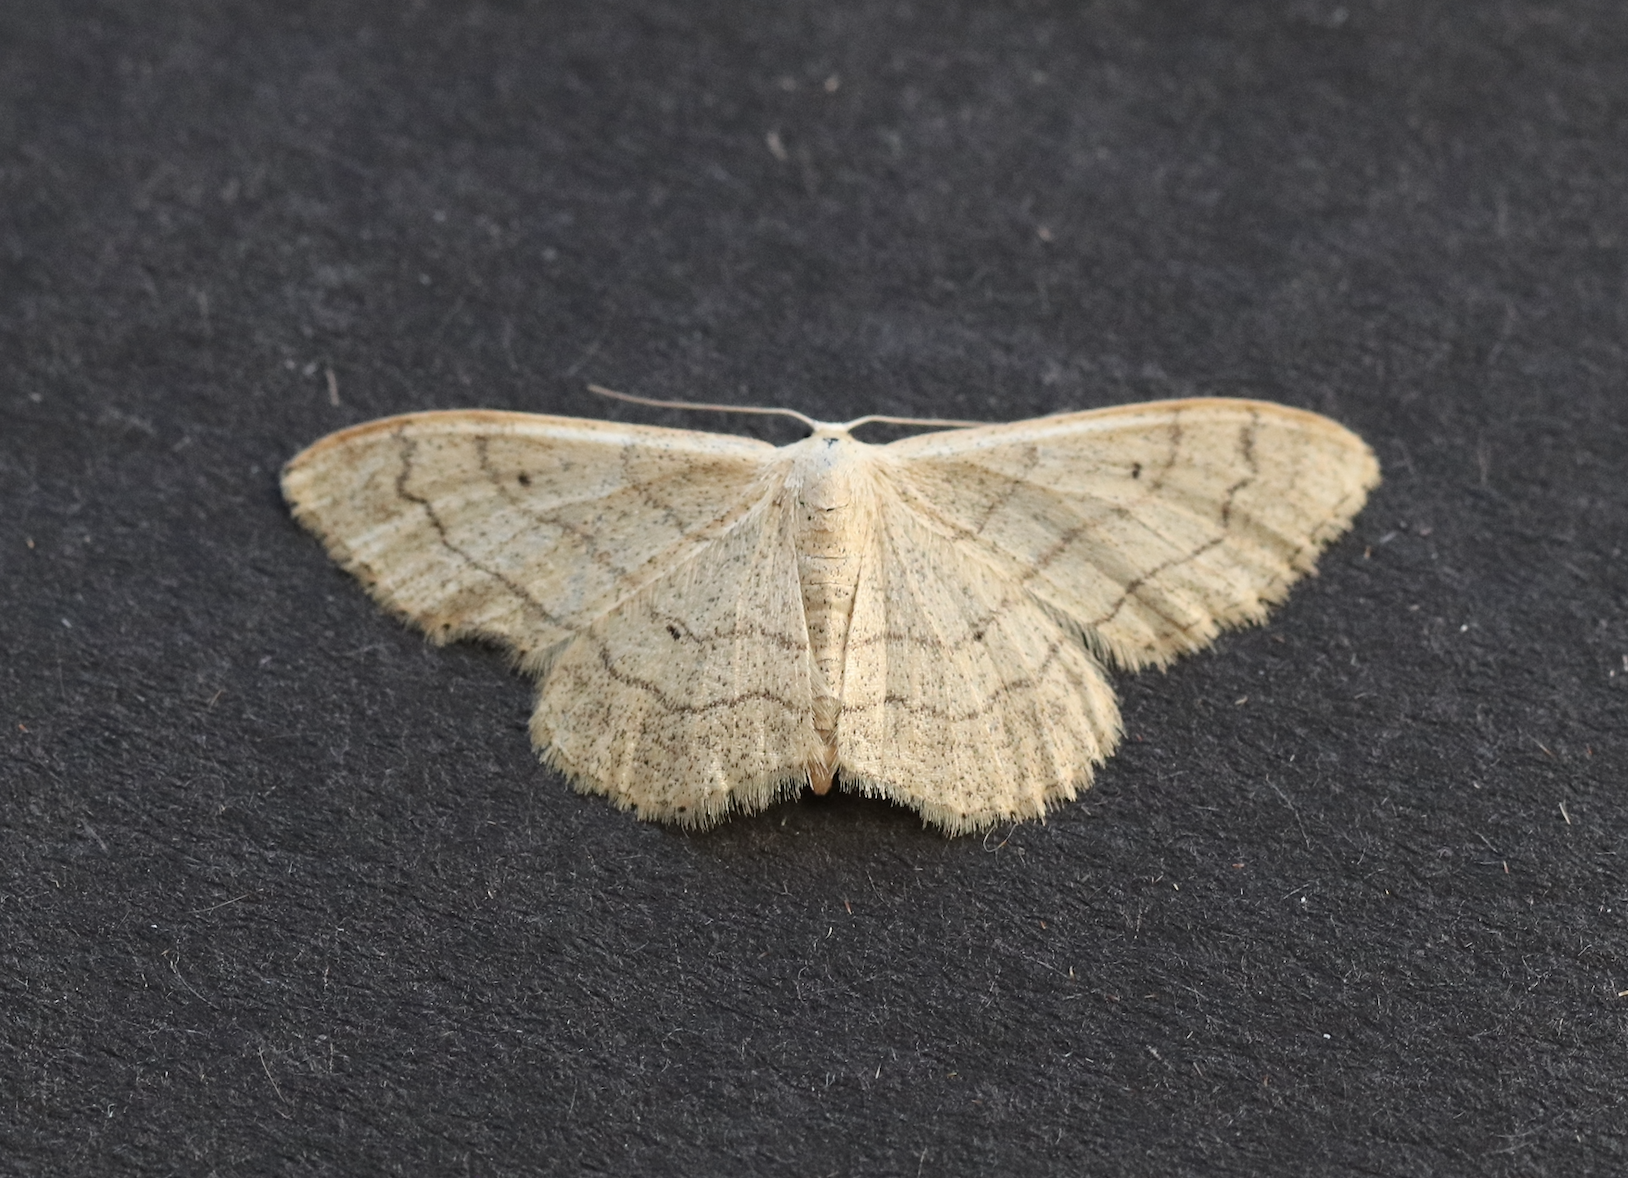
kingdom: Animalia
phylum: Arthropoda
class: Insecta
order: Lepidoptera
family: Geometridae
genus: Idaea
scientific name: Idaea aversata
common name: Riband wave
